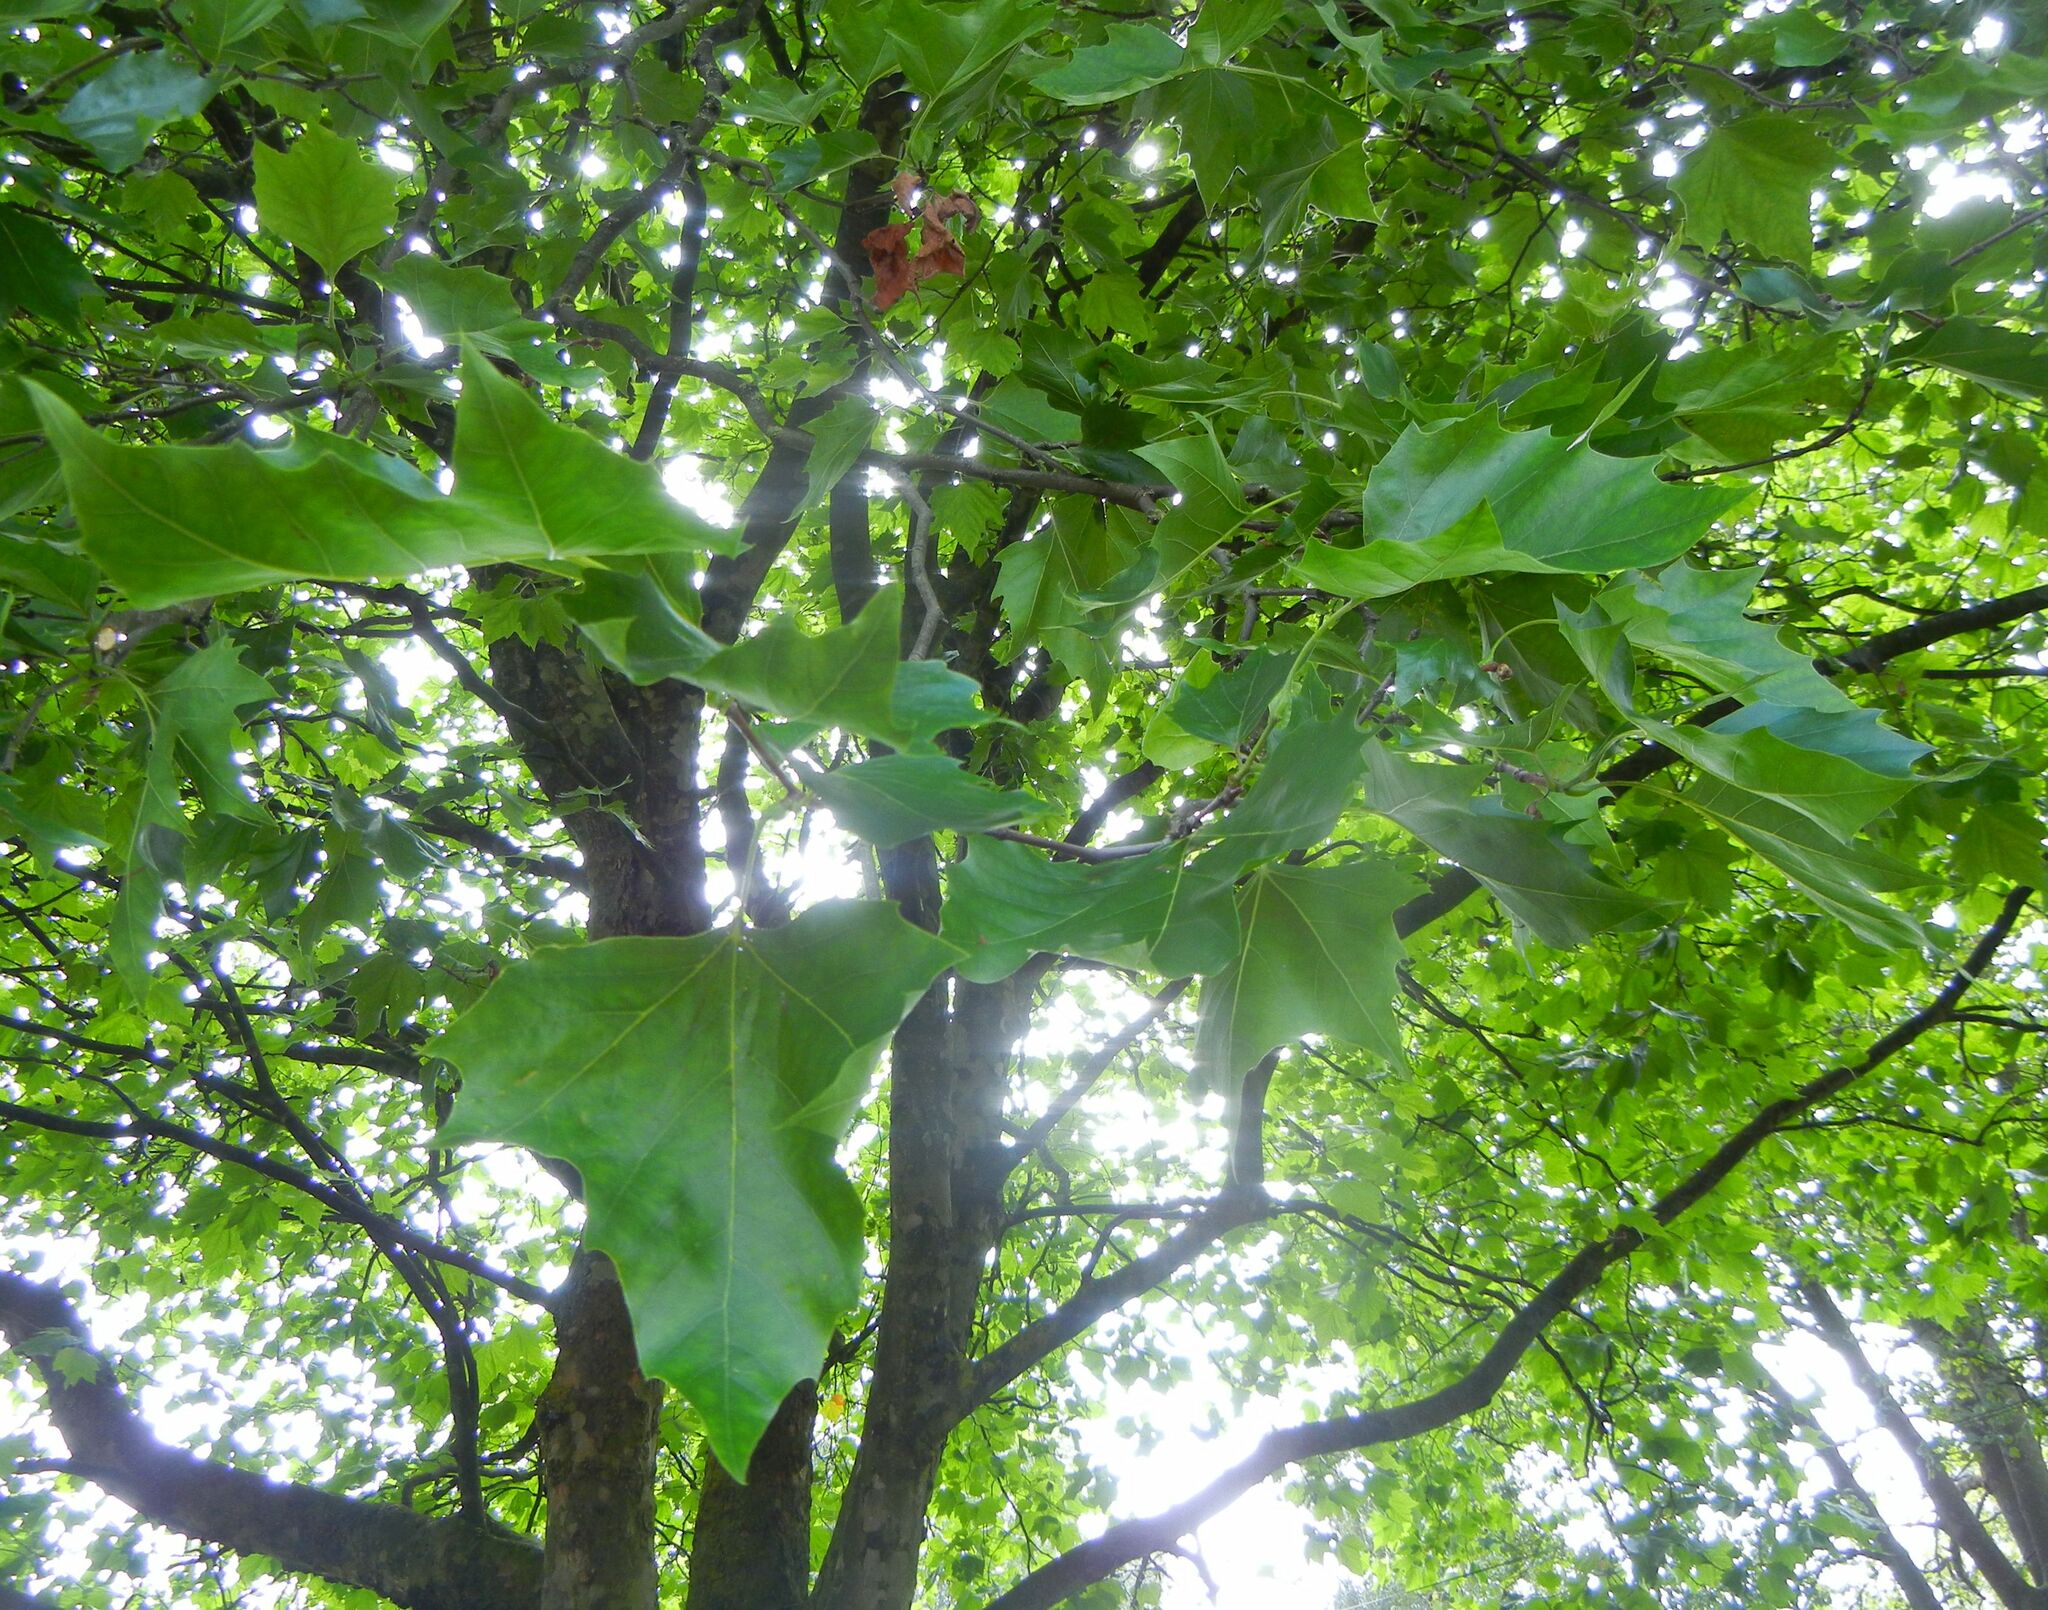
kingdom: Plantae
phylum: Tracheophyta
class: Magnoliopsida
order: Proteales
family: Platanaceae
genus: Platanus
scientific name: Platanus hispanica
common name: London plane
